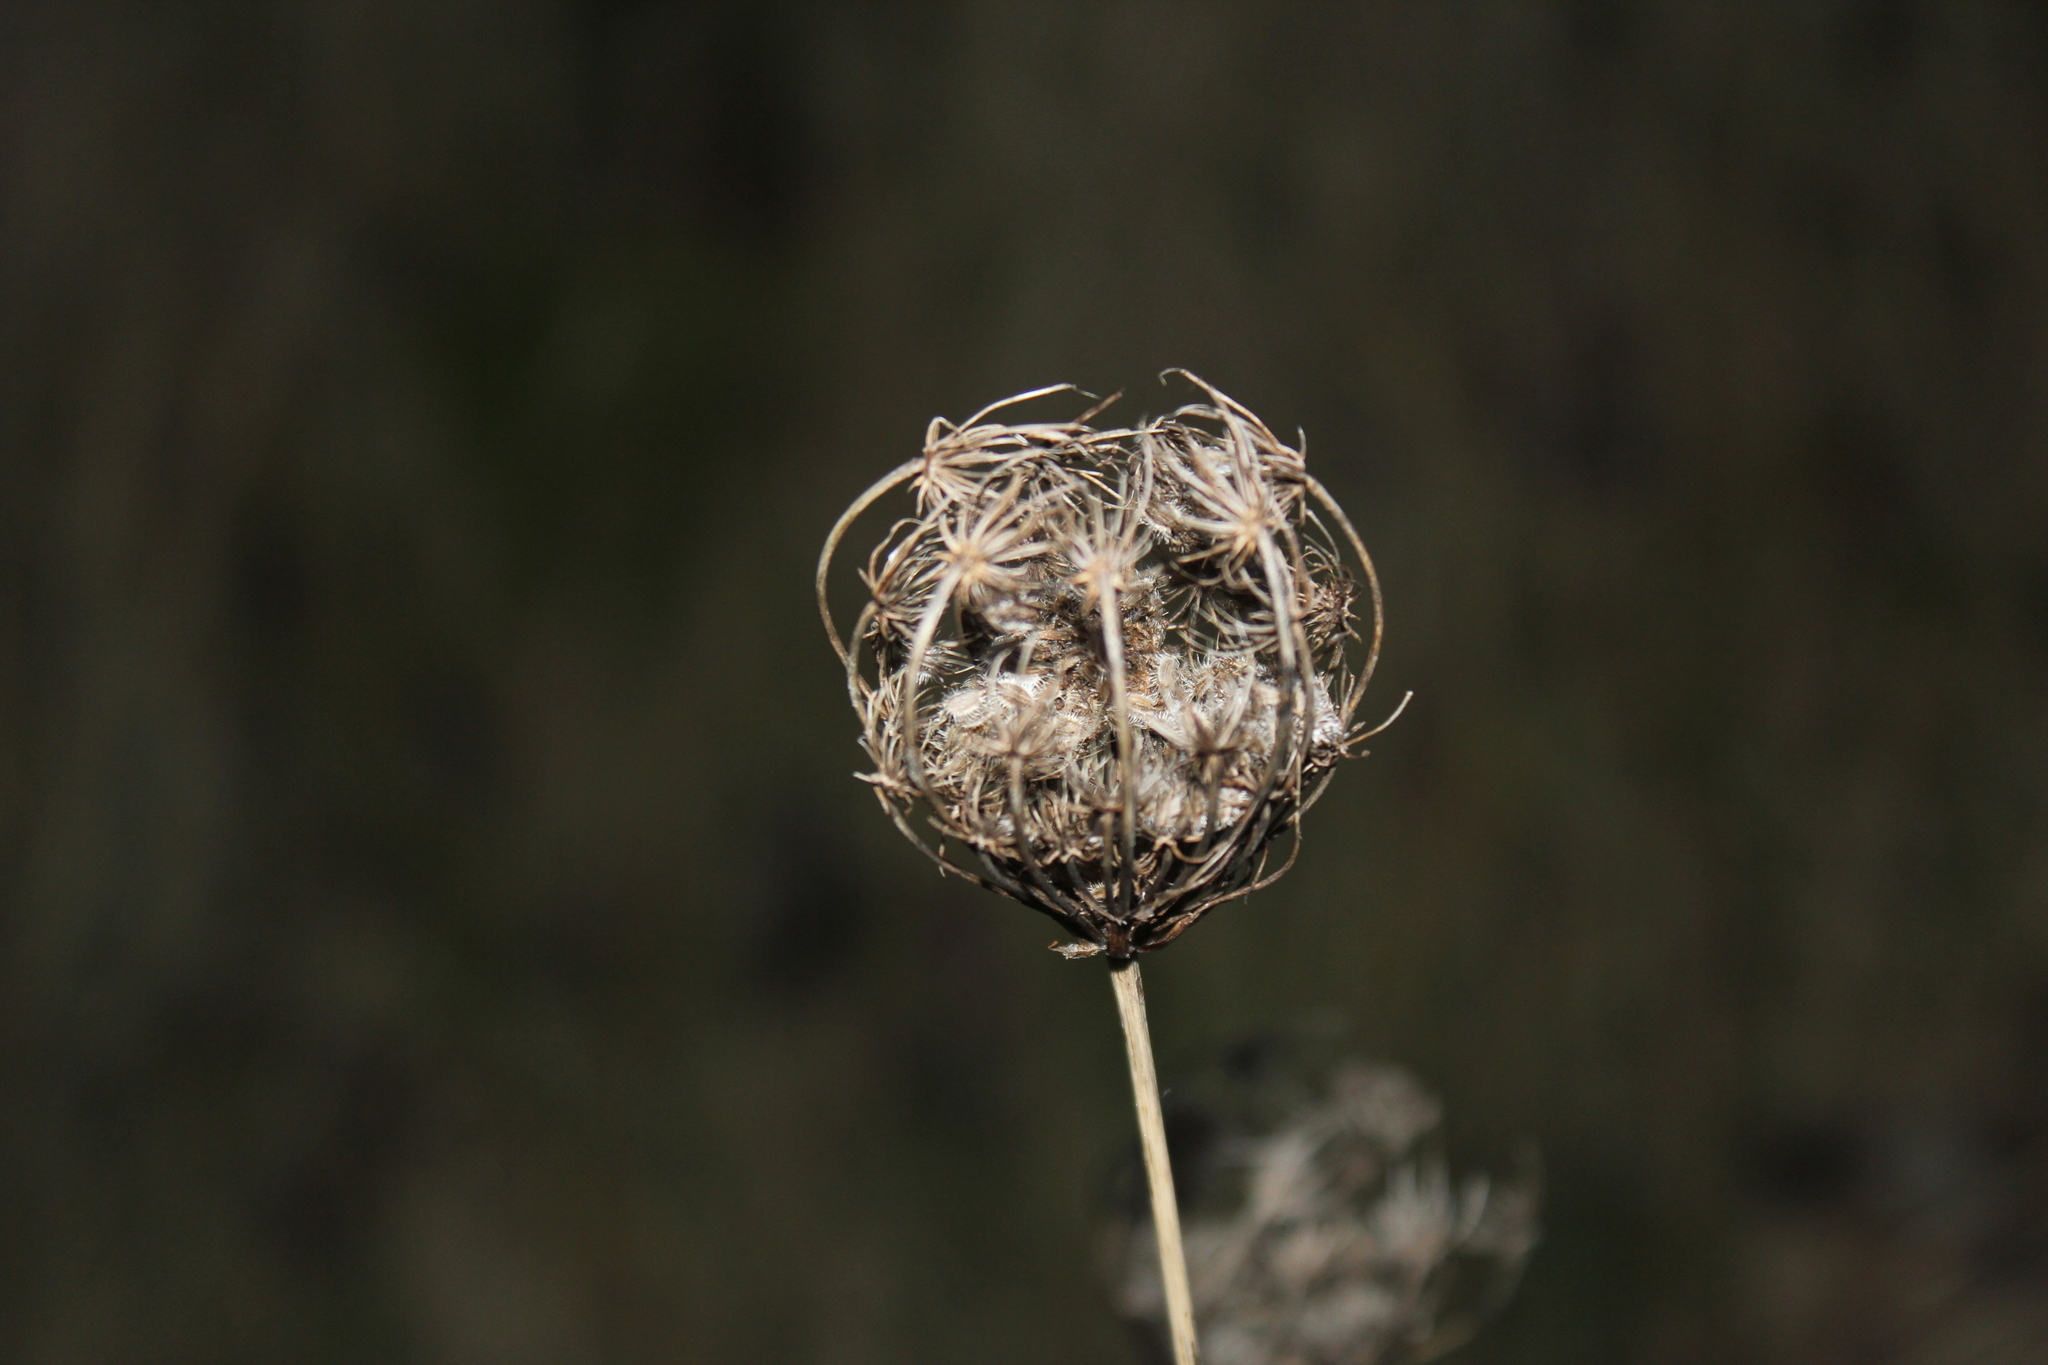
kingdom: Plantae
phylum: Tracheophyta
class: Magnoliopsida
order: Apiales
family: Apiaceae
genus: Daucus
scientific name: Daucus carota
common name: Wild carrot
